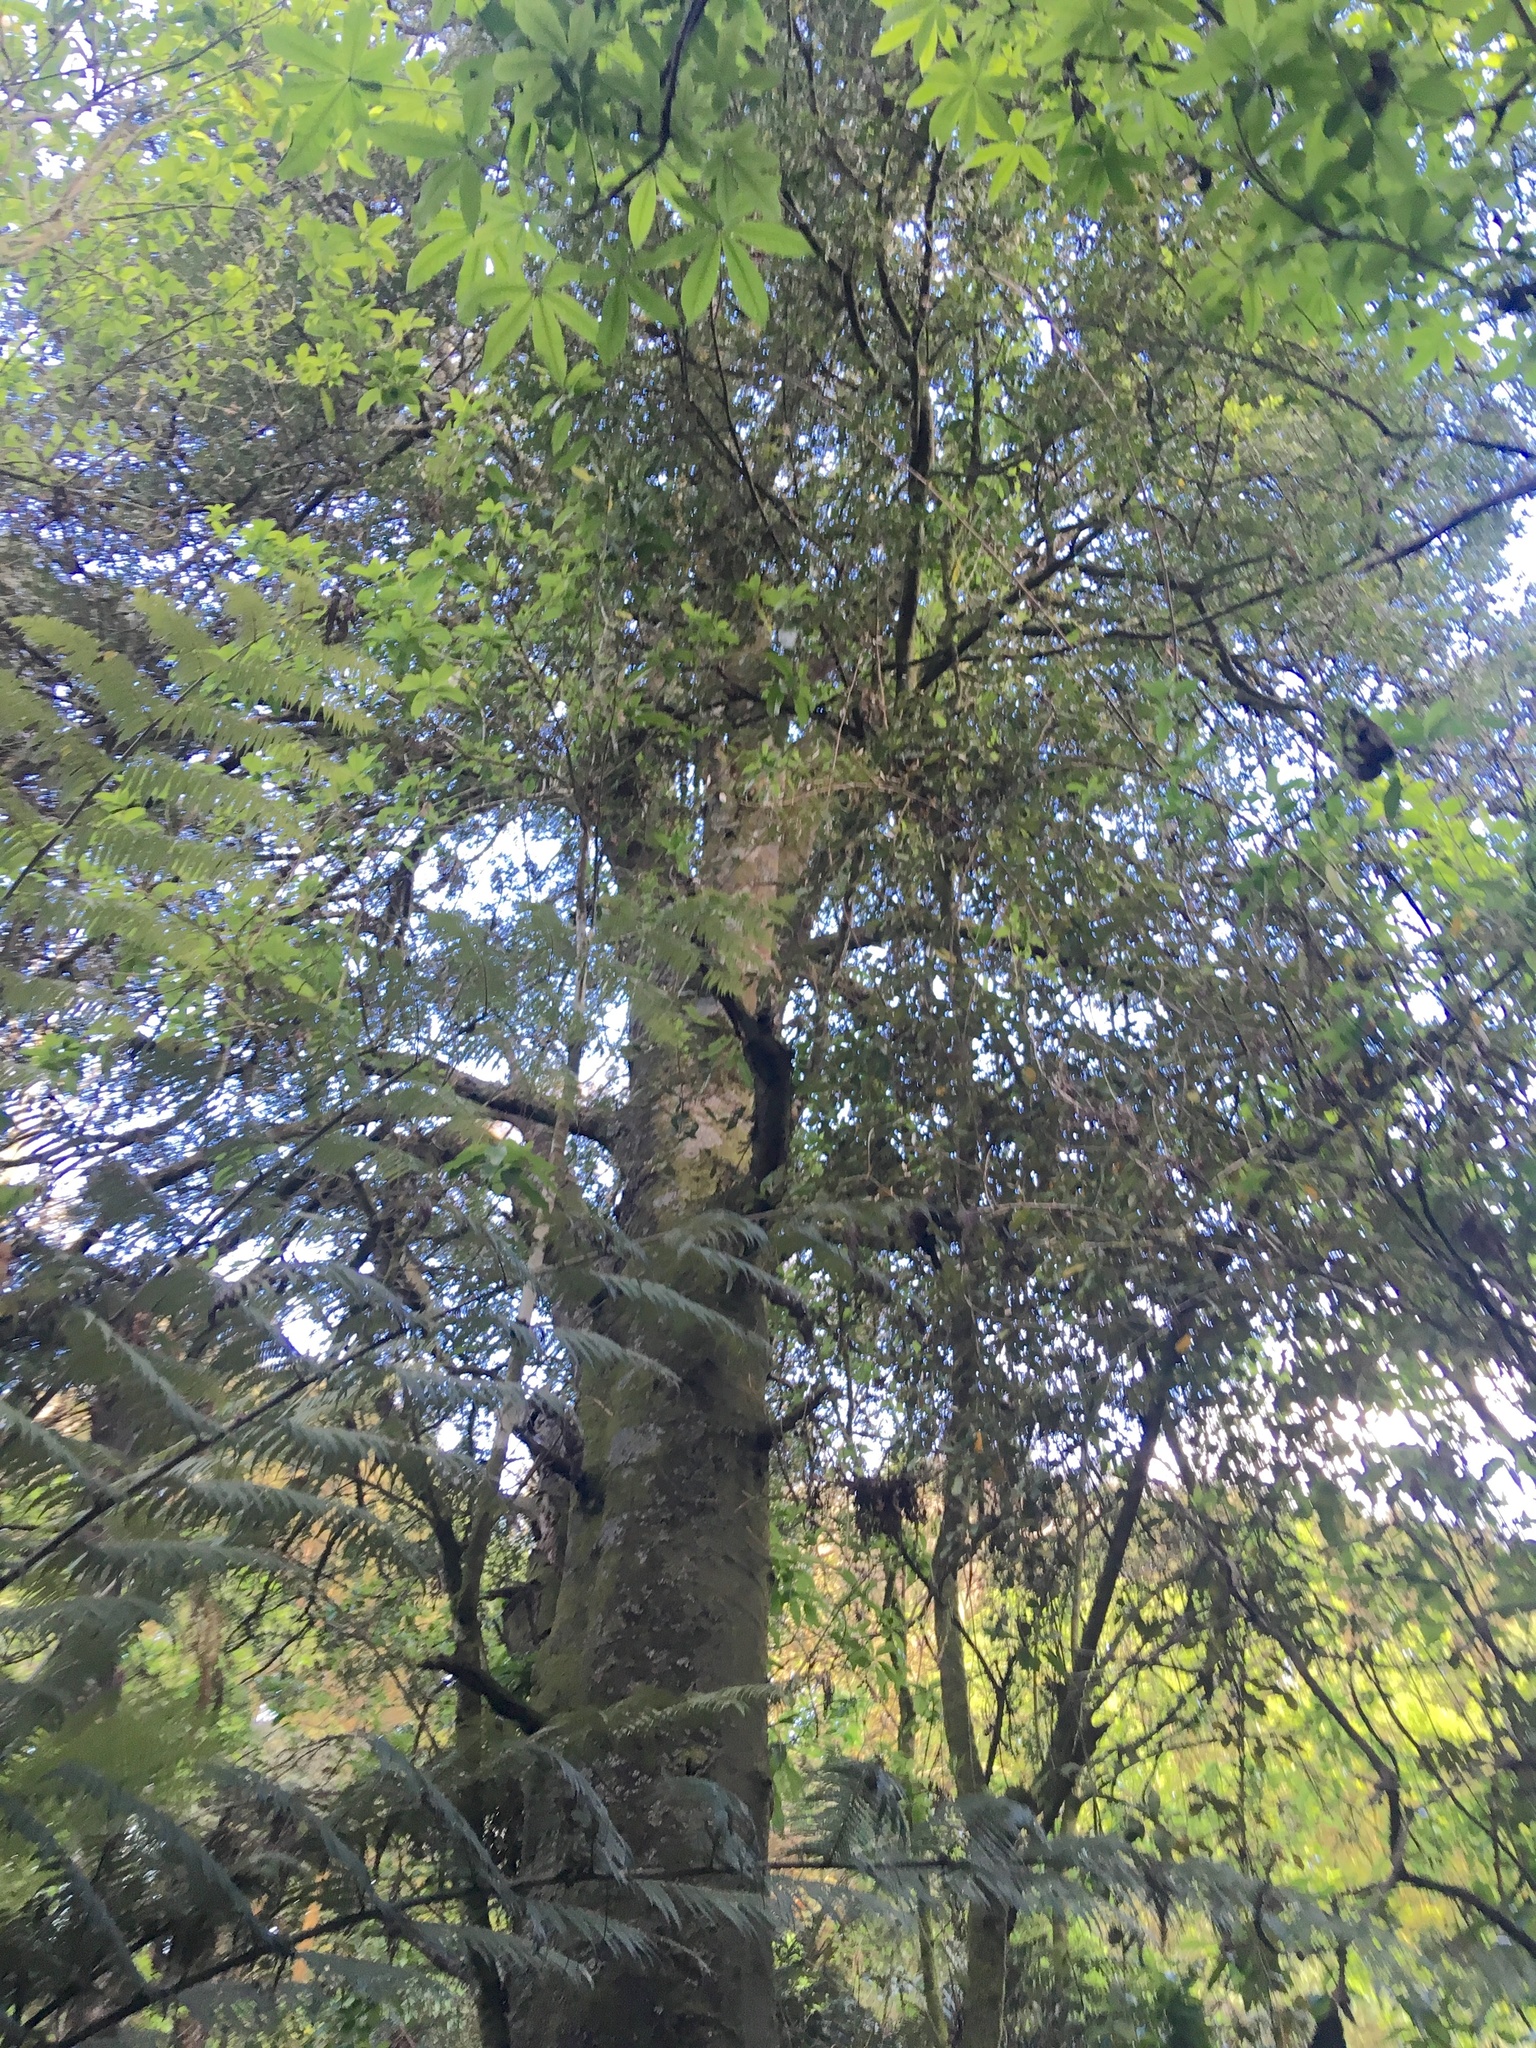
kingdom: Plantae
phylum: Tracheophyta
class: Pinopsida
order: Pinales
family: Phyllocladaceae
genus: Phyllocladus
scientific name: Phyllocladus trichomanoides
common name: Celery pine
